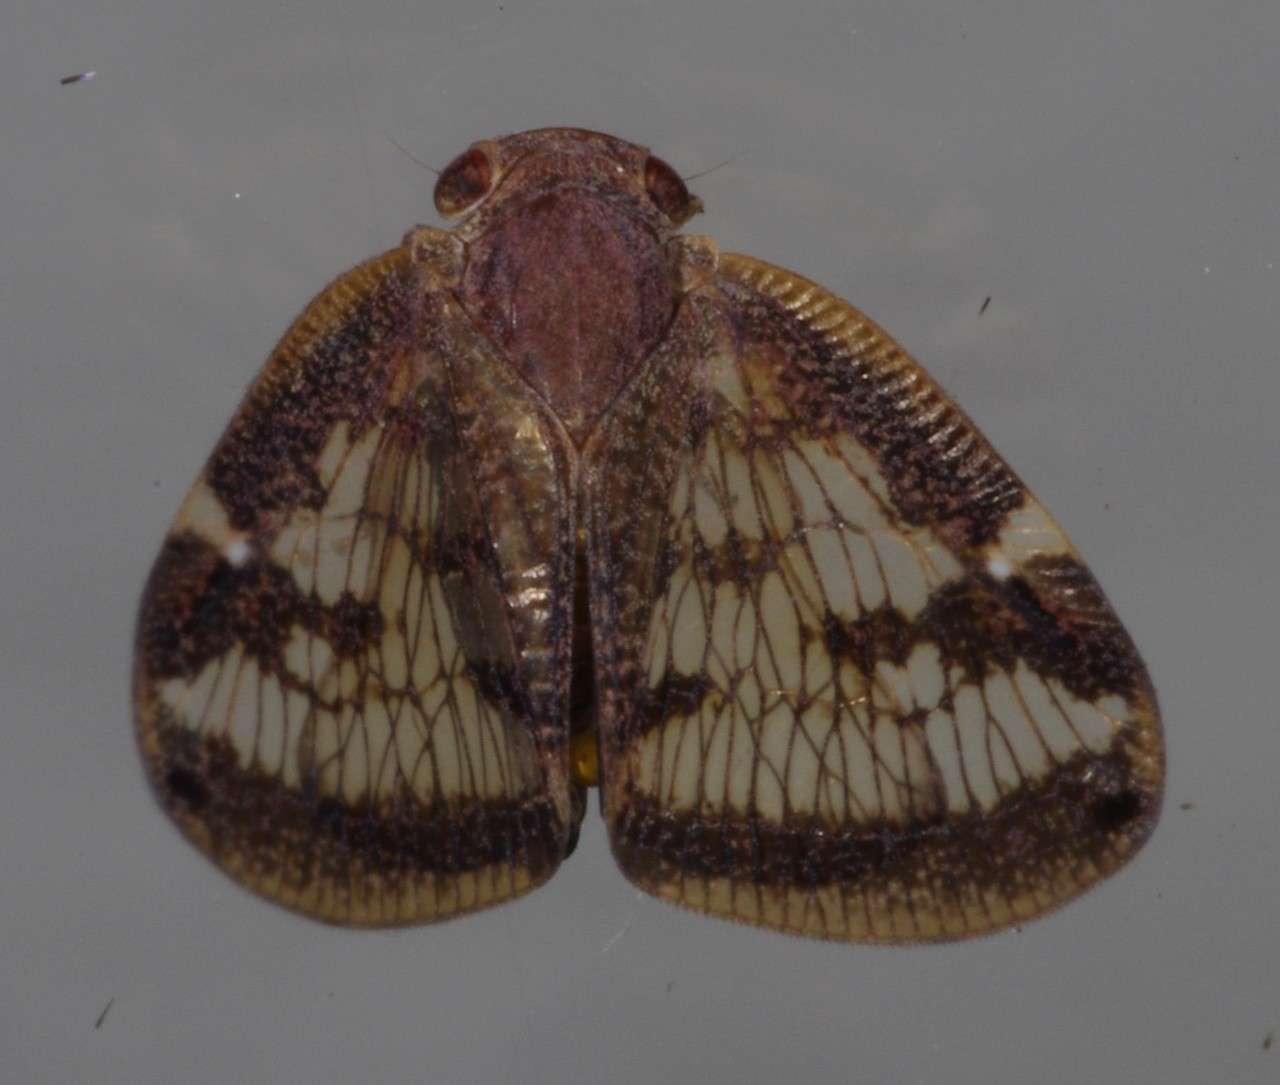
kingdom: Animalia
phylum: Arthropoda
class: Insecta
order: Hemiptera
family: Ricaniidae
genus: Scolypopa
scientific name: Scolypopa australis
